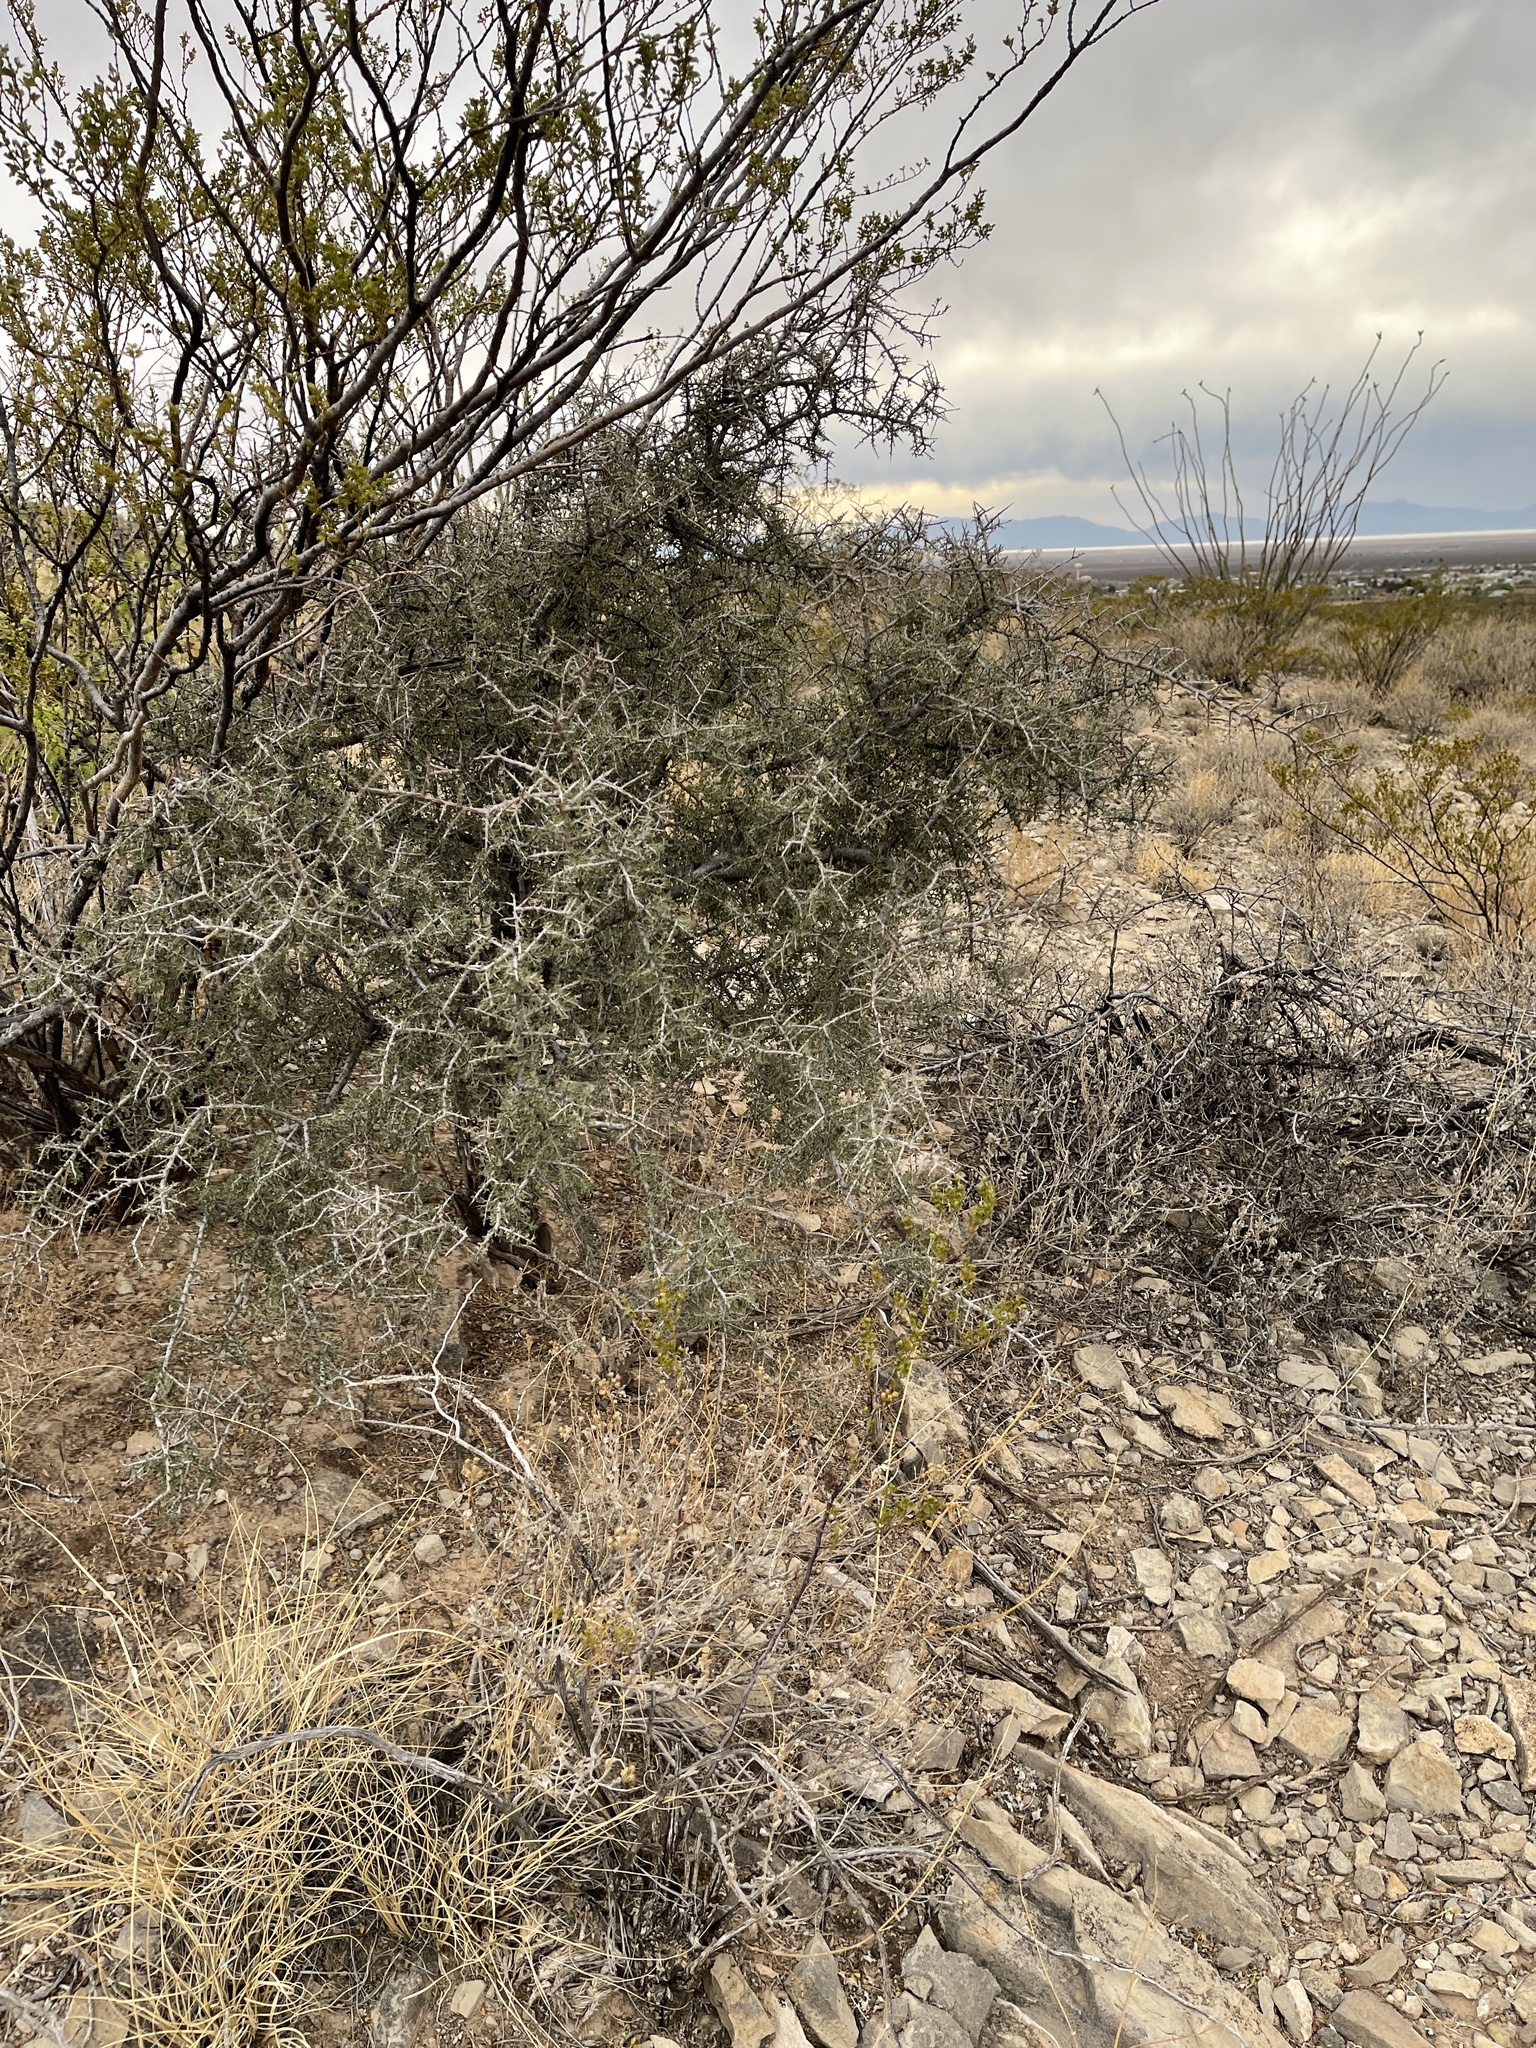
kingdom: Plantae
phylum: Tracheophyta
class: Magnoliopsida
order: Rosales
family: Rhamnaceae
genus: Condalia
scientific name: Condalia warnockii
